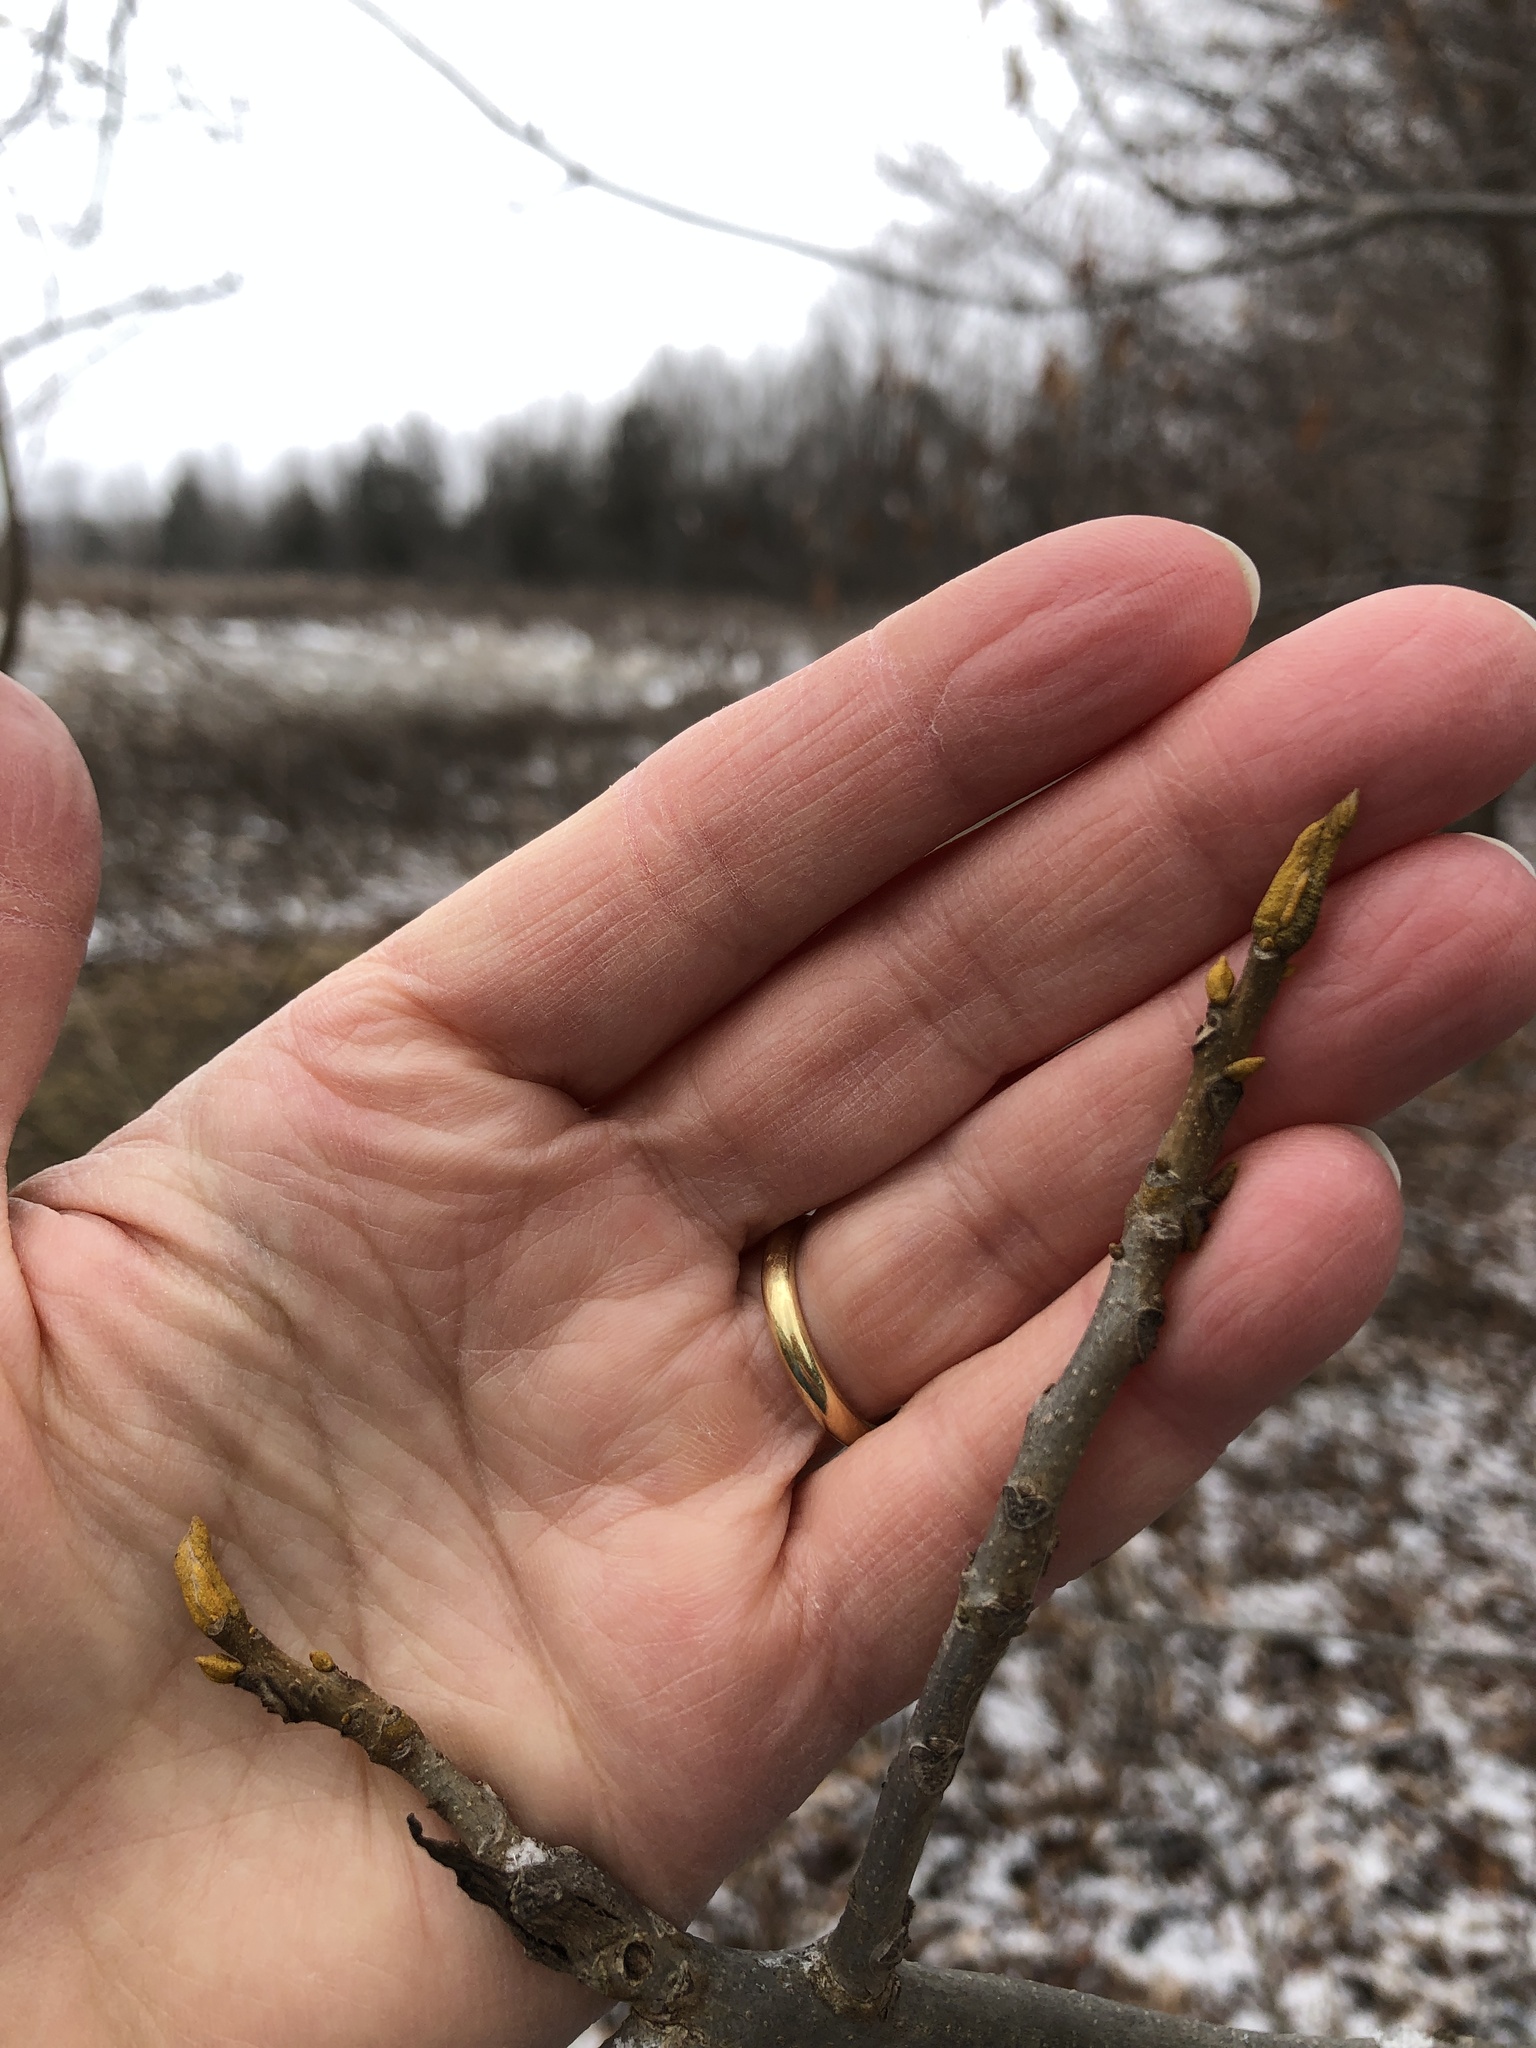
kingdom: Plantae
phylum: Tracheophyta
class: Magnoliopsida
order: Fagales
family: Juglandaceae
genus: Carya
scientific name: Carya cordiformis
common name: Bitternut hickory
